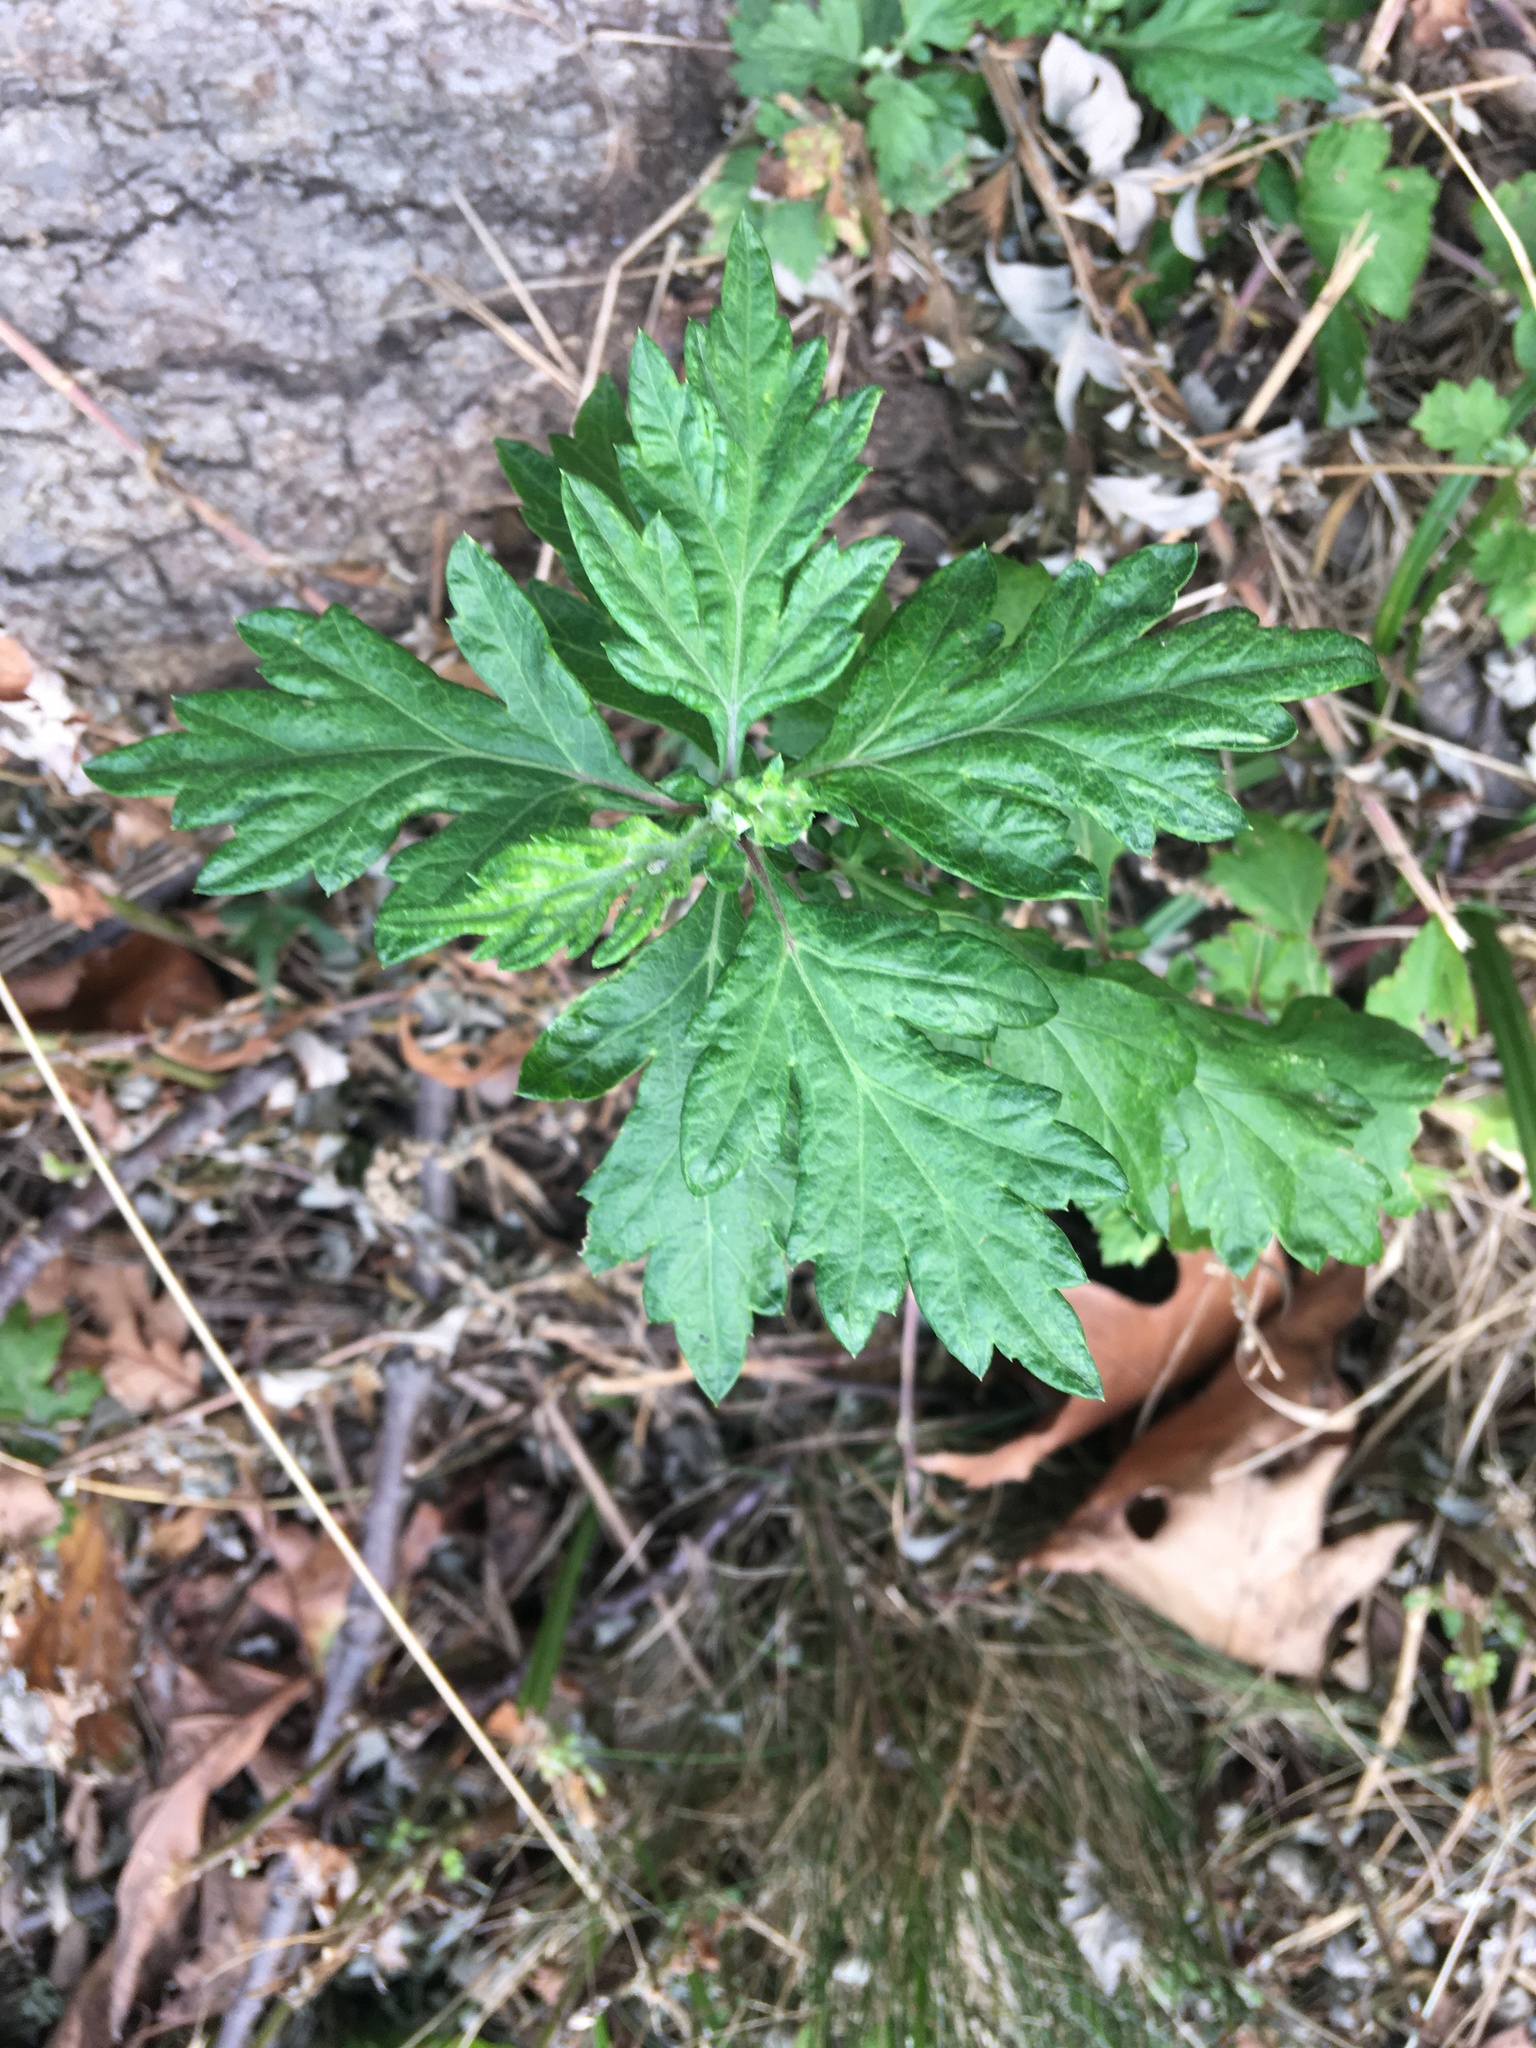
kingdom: Plantae
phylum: Tracheophyta
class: Magnoliopsida
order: Asterales
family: Asteraceae
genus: Artemisia
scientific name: Artemisia vulgaris
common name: Mugwort
